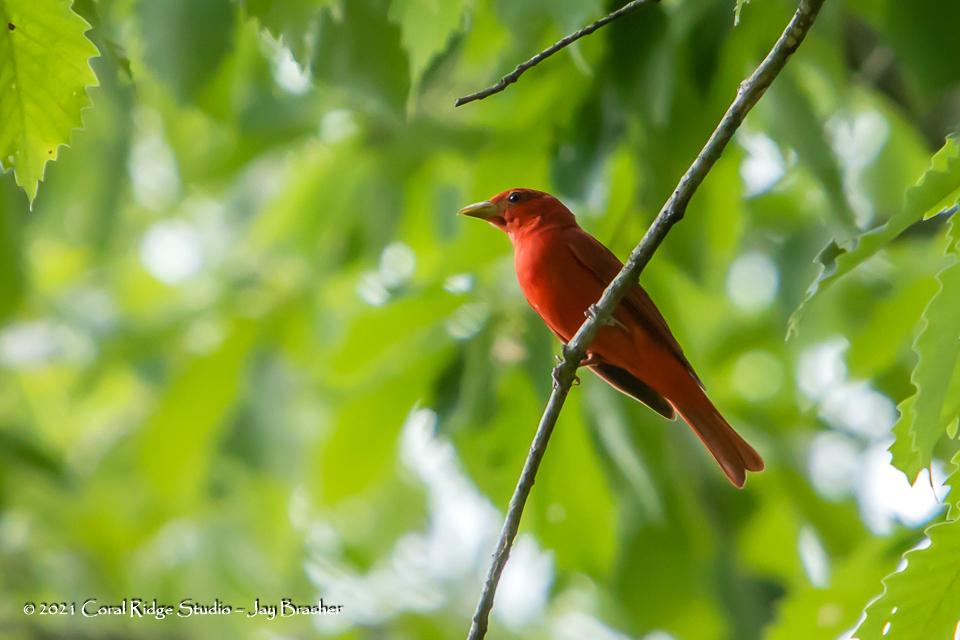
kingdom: Animalia
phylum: Chordata
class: Aves
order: Passeriformes
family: Cardinalidae
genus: Piranga
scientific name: Piranga rubra
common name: Summer tanager
